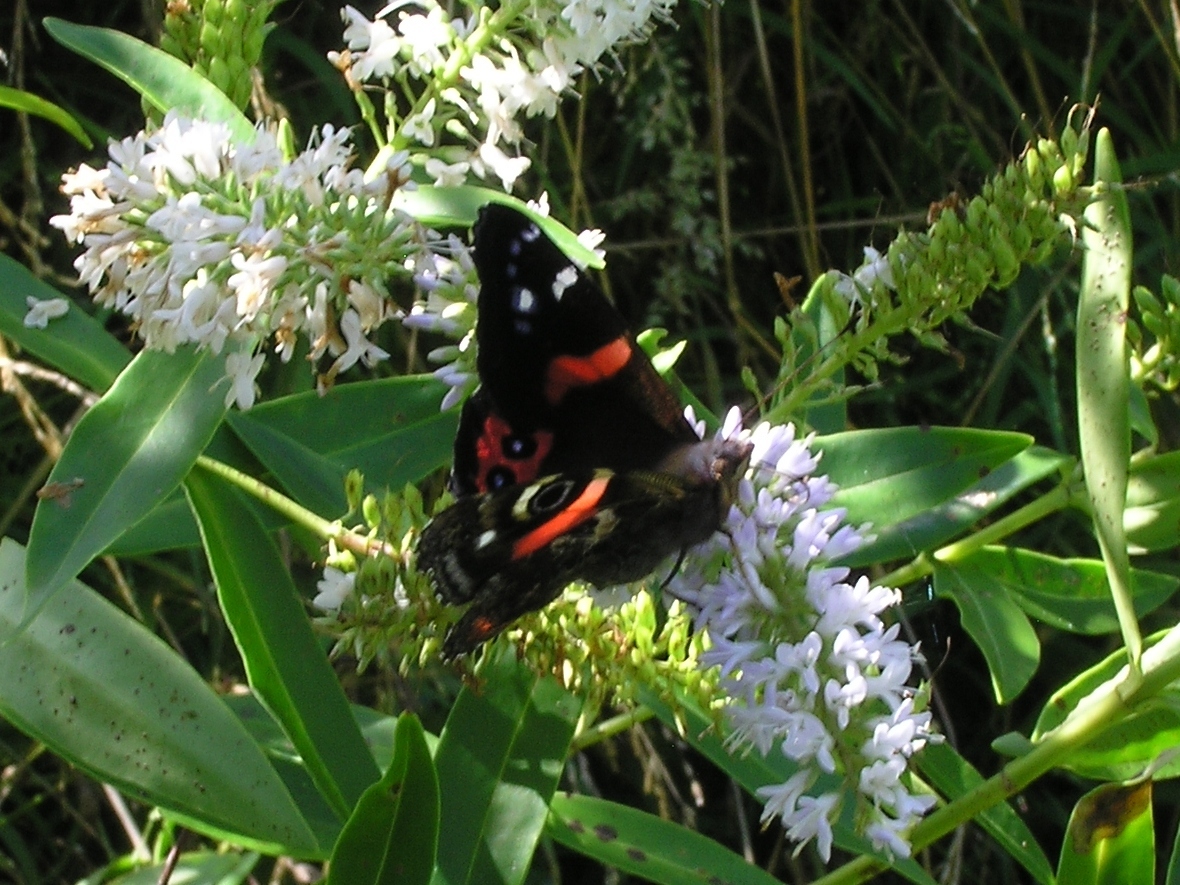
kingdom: Animalia
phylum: Arthropoda
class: Insecta
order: Lepidoptera
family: Nymphalidae
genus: Vanessa
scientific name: Vanessa gonerilla
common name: New zealand red admiral
